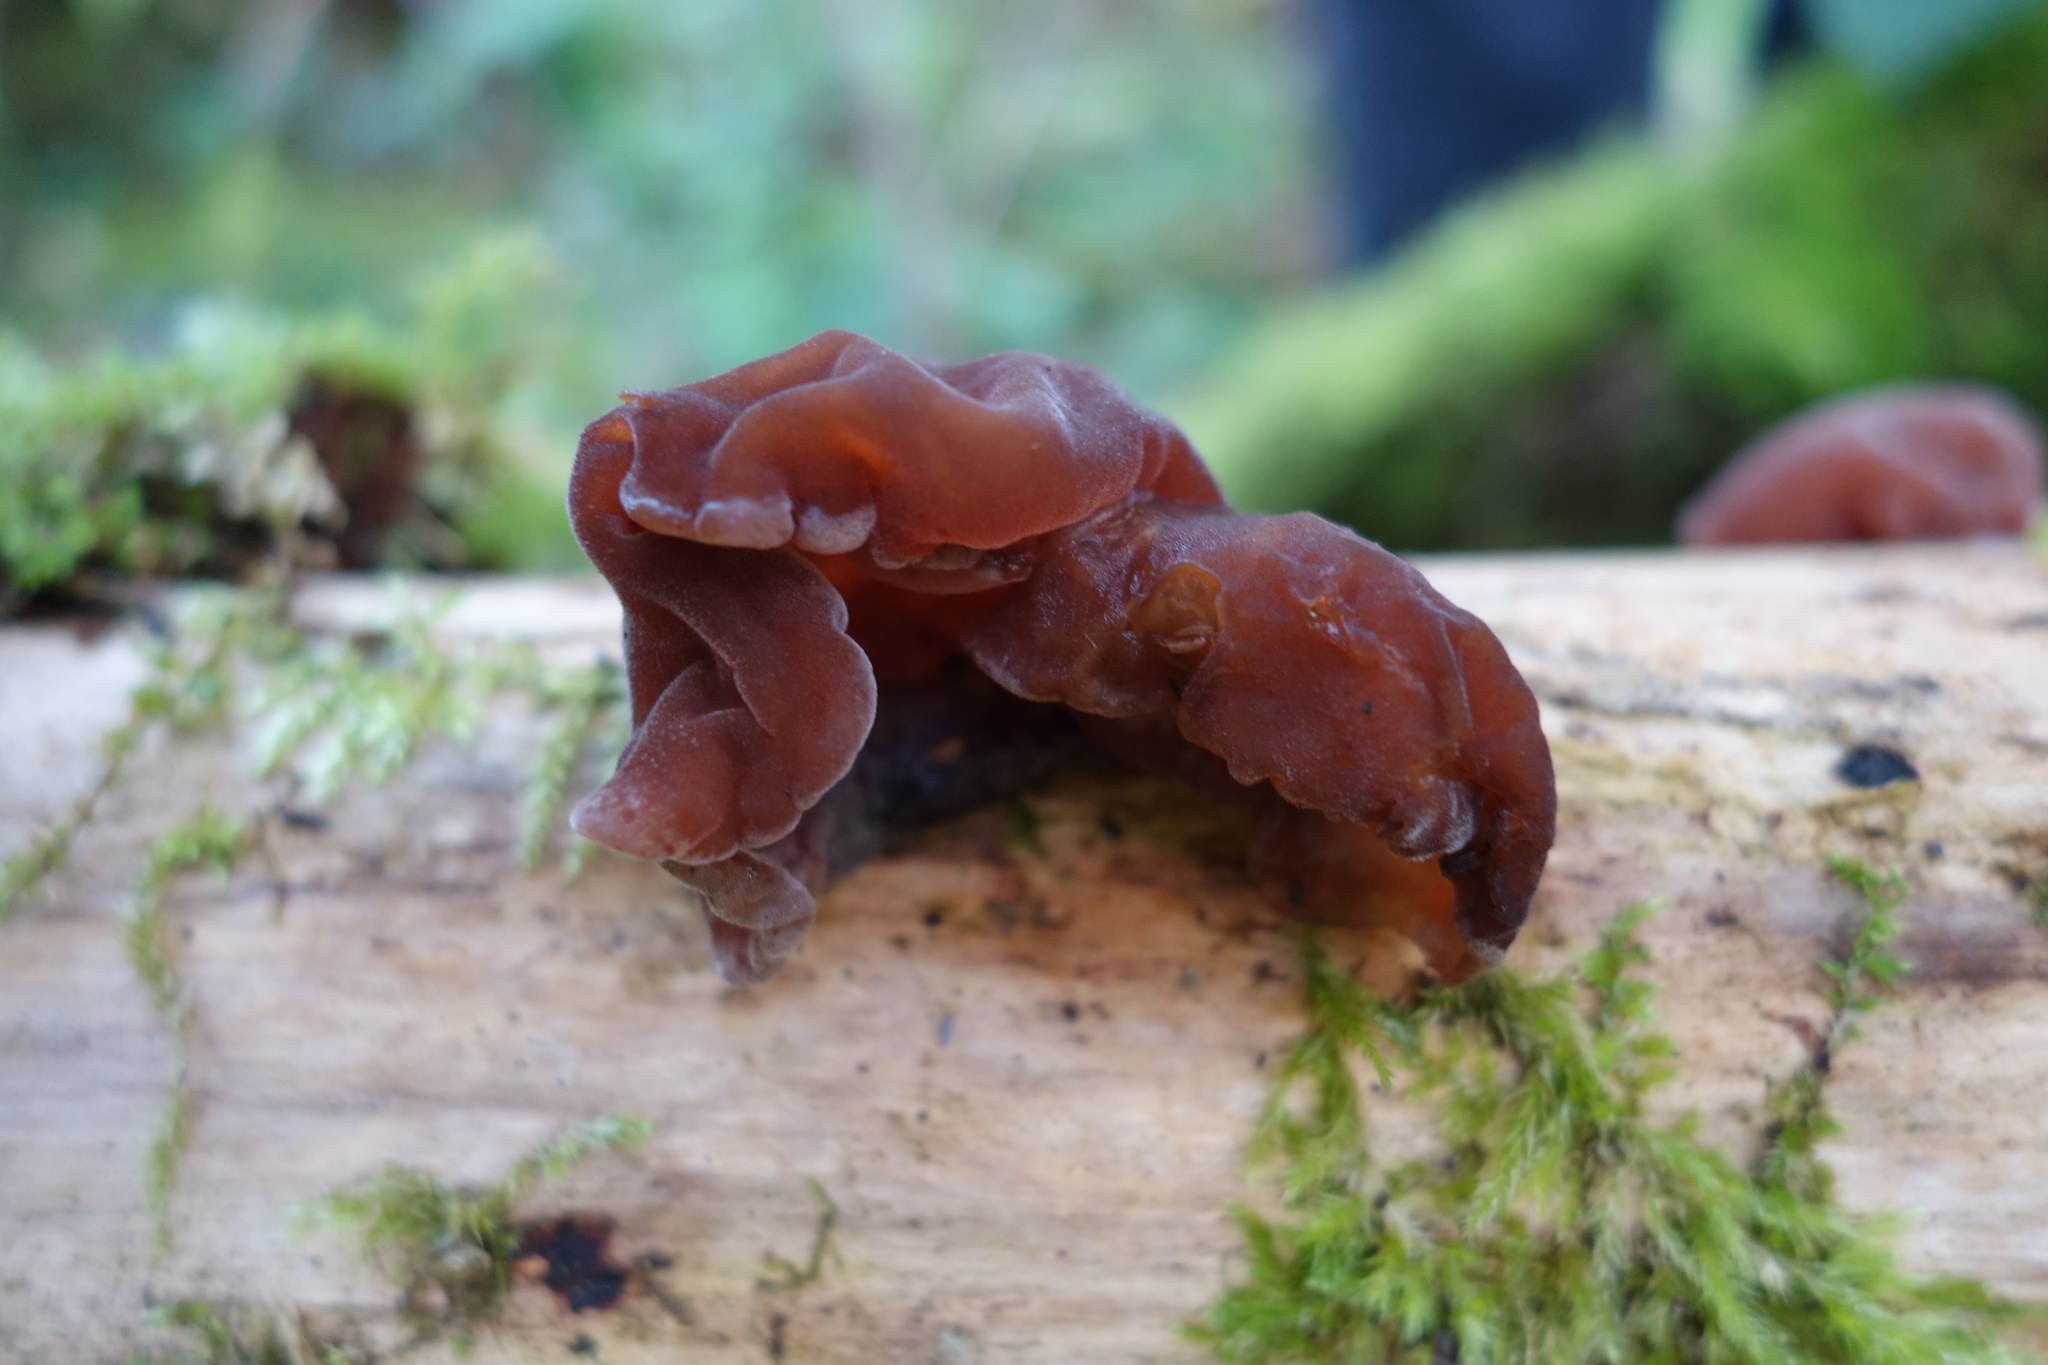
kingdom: Fungi
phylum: Basidiomycota
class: Agaricomycetes
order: Auriculariales
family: Auriculariaceae
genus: Auricularia
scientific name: Auricularia auricula-judae
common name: Jelly ear
